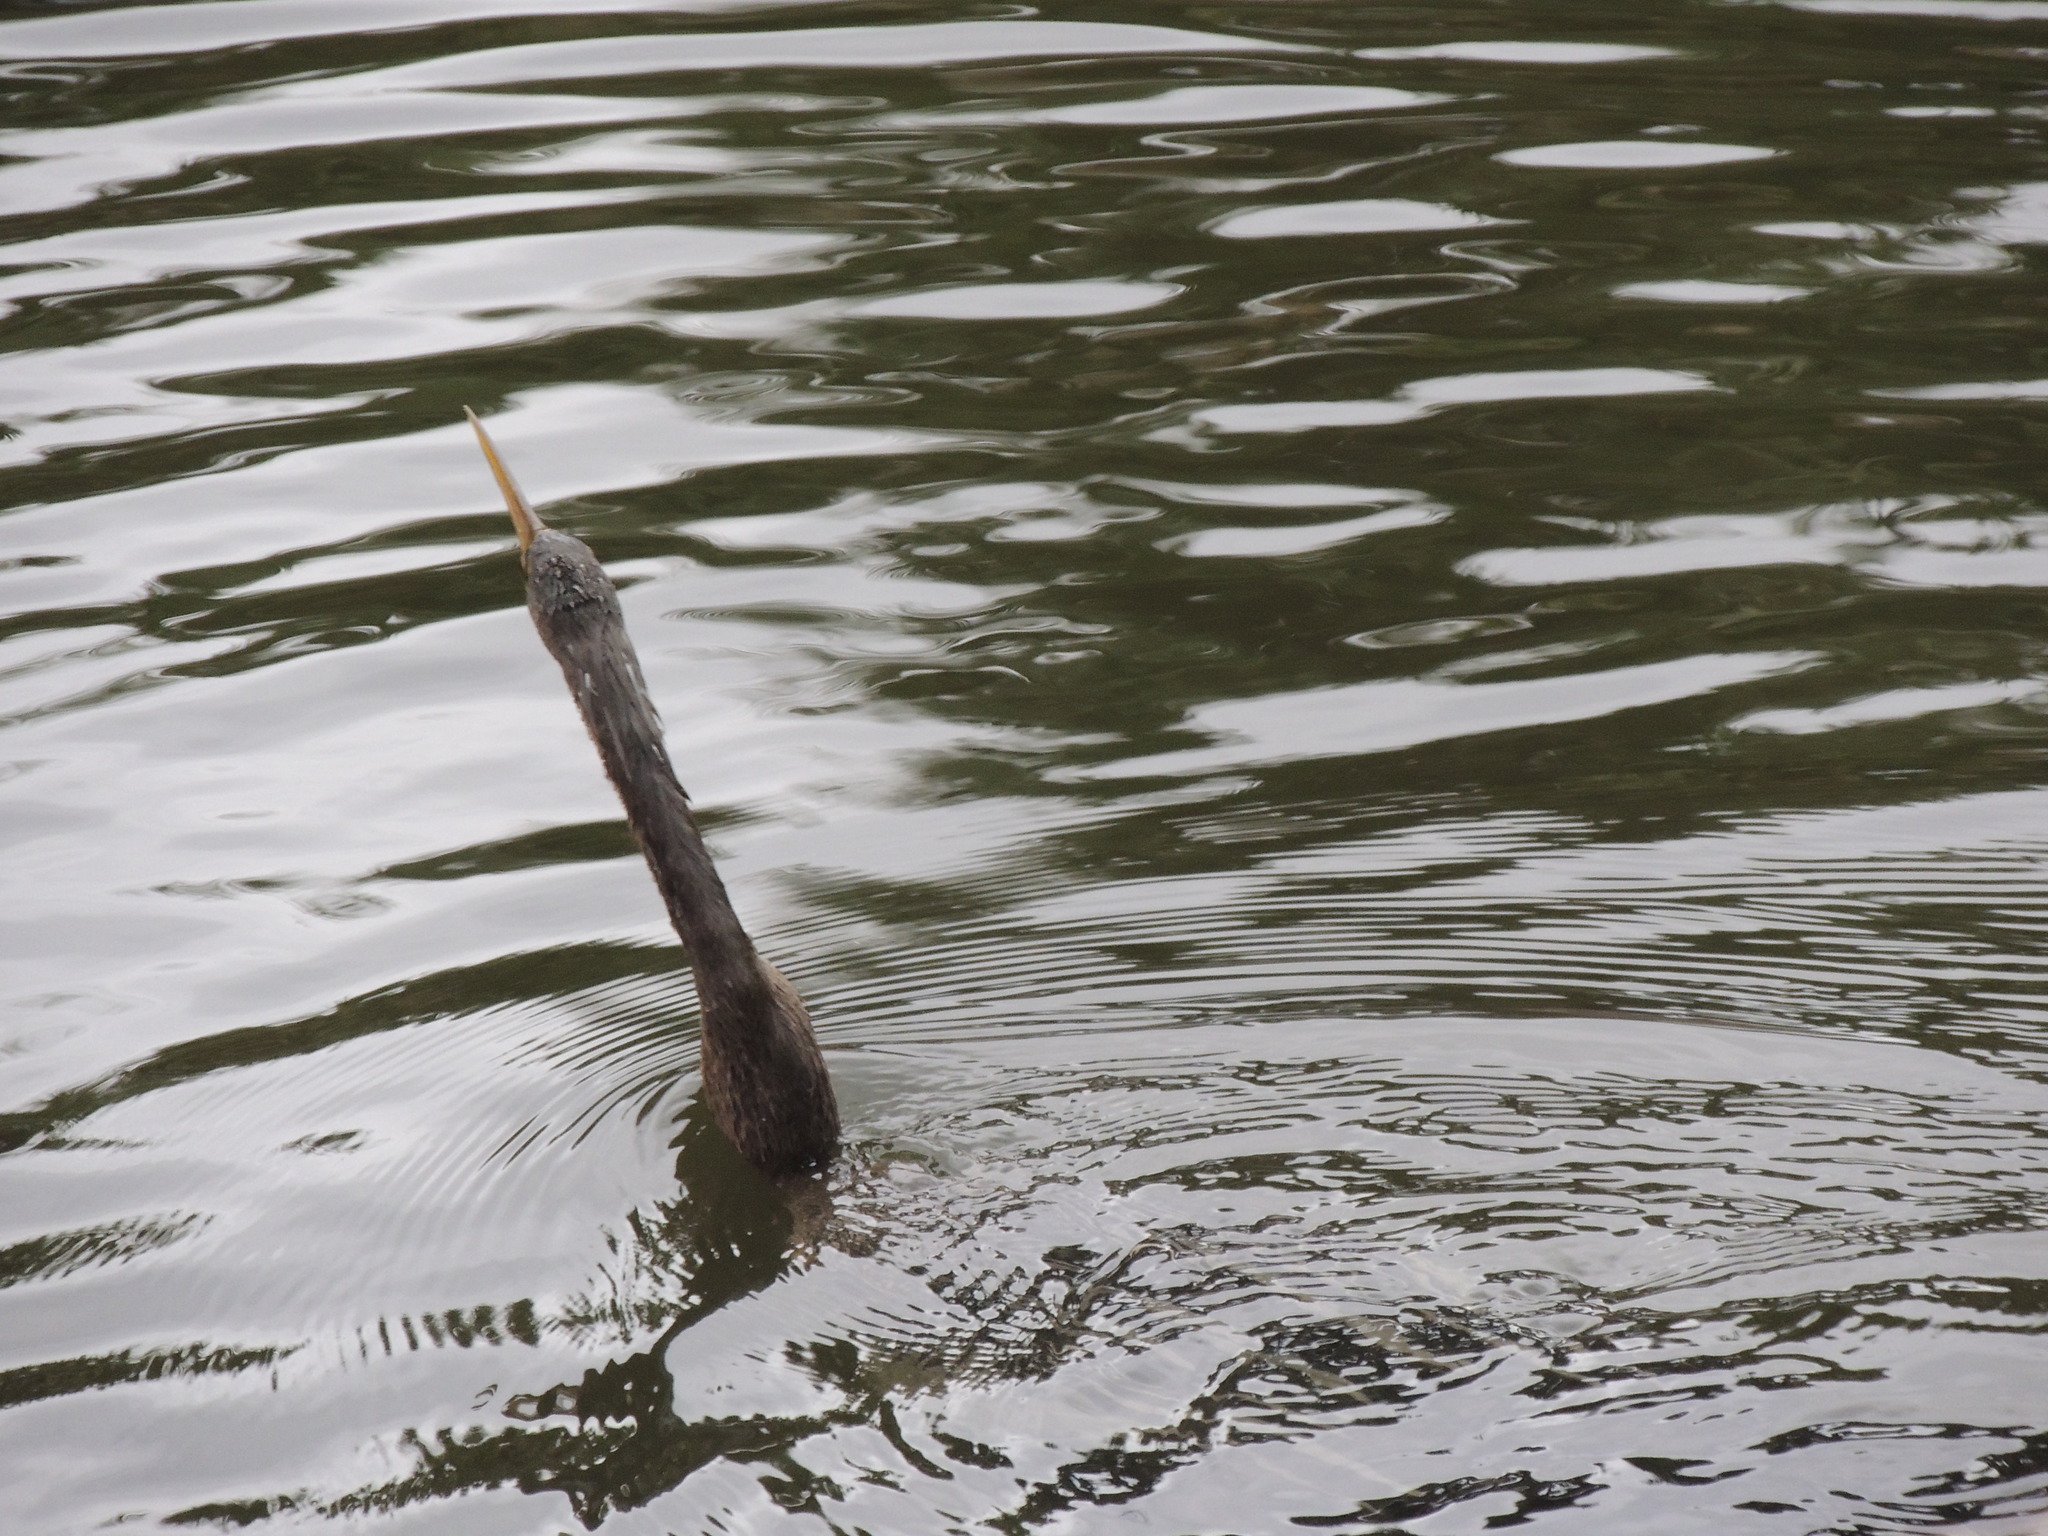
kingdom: Animalia
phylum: Chordata
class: Aves
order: Suliformes
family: Anhingidae
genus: Anhinga
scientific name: Anhinga anhinga
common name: Anhinga
